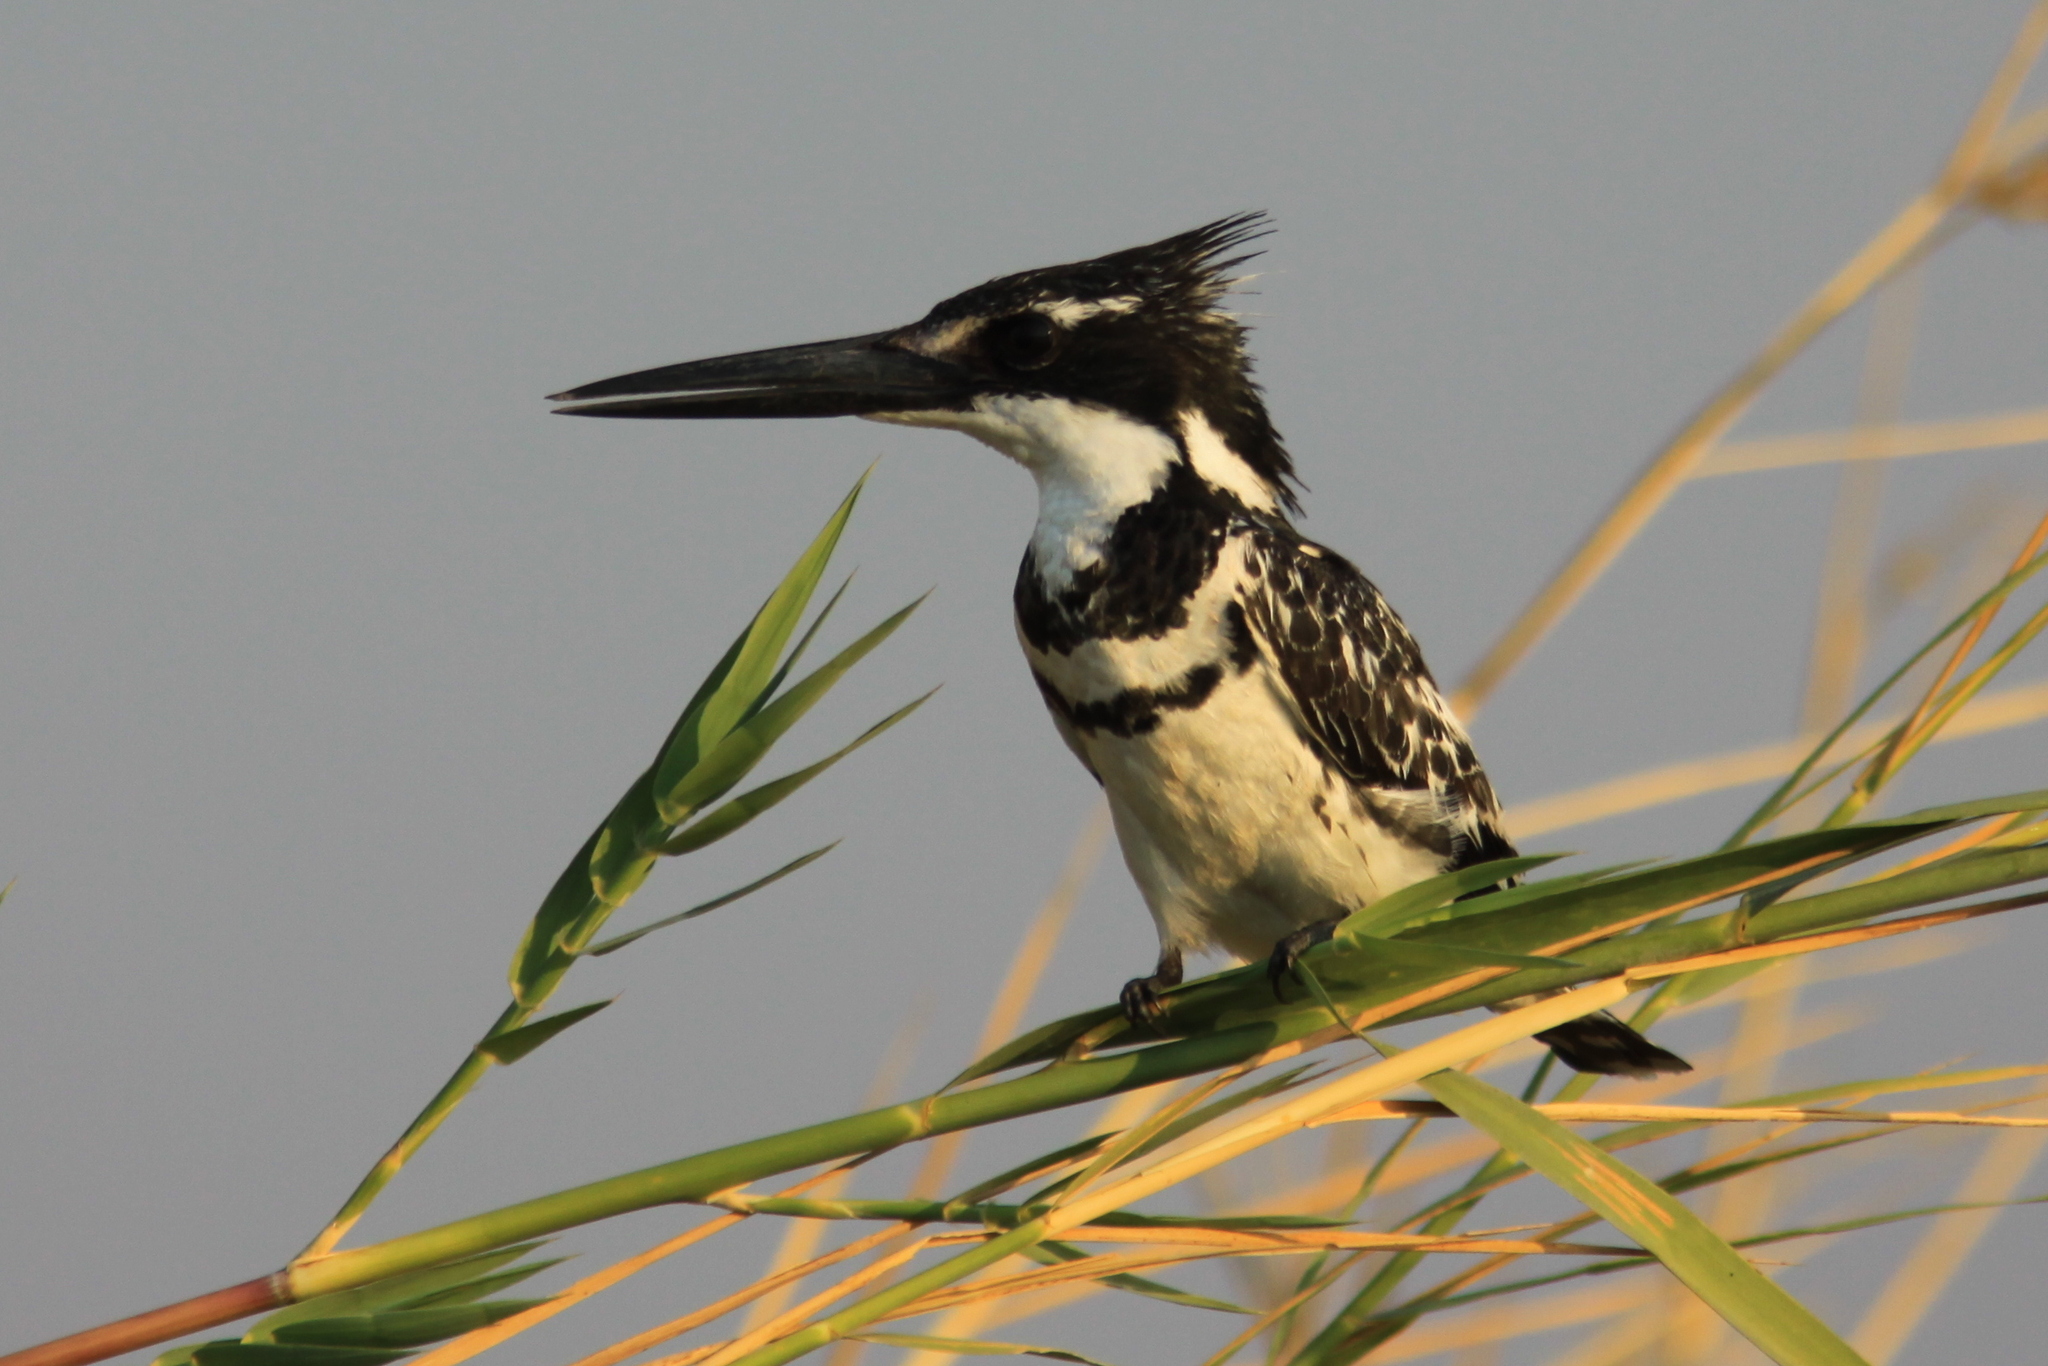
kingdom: Animalia
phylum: Chordata
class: Aves
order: Coraciiformes
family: Alcedinidae
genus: Ceryle
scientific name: Ceryle rudis
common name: Pied kingfisher
